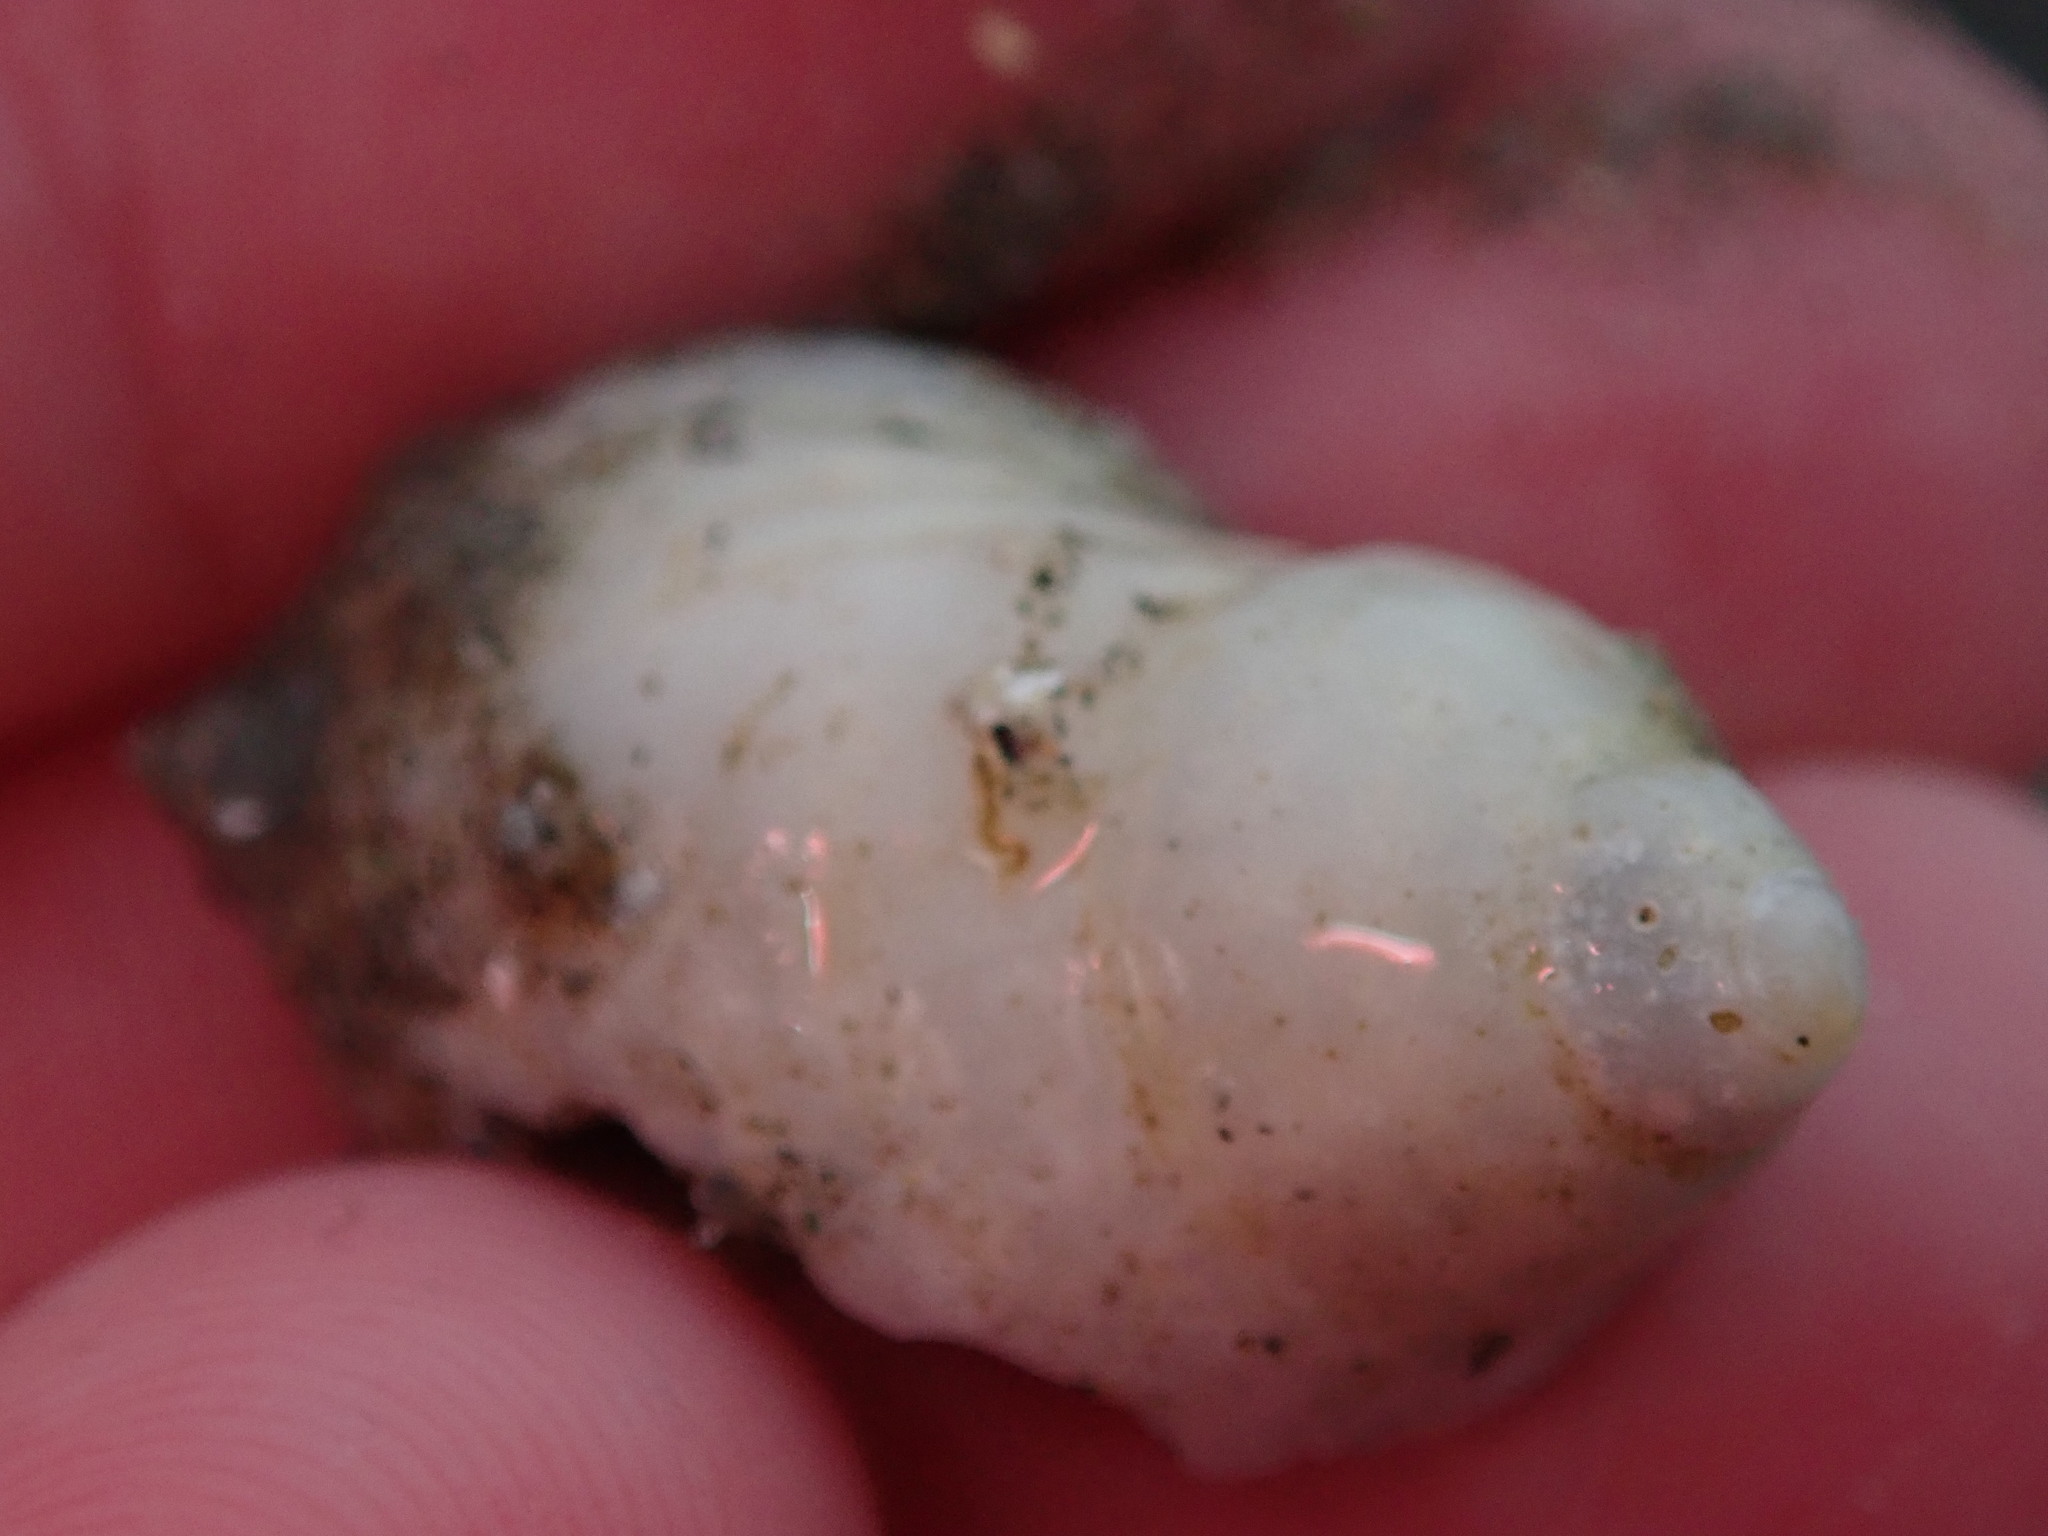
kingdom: Animalia
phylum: Mollusca
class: Gastropoda
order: Neogastropoda
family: Muricidae
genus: Nucella
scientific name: Nucella lapillus
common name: Dog whelk
